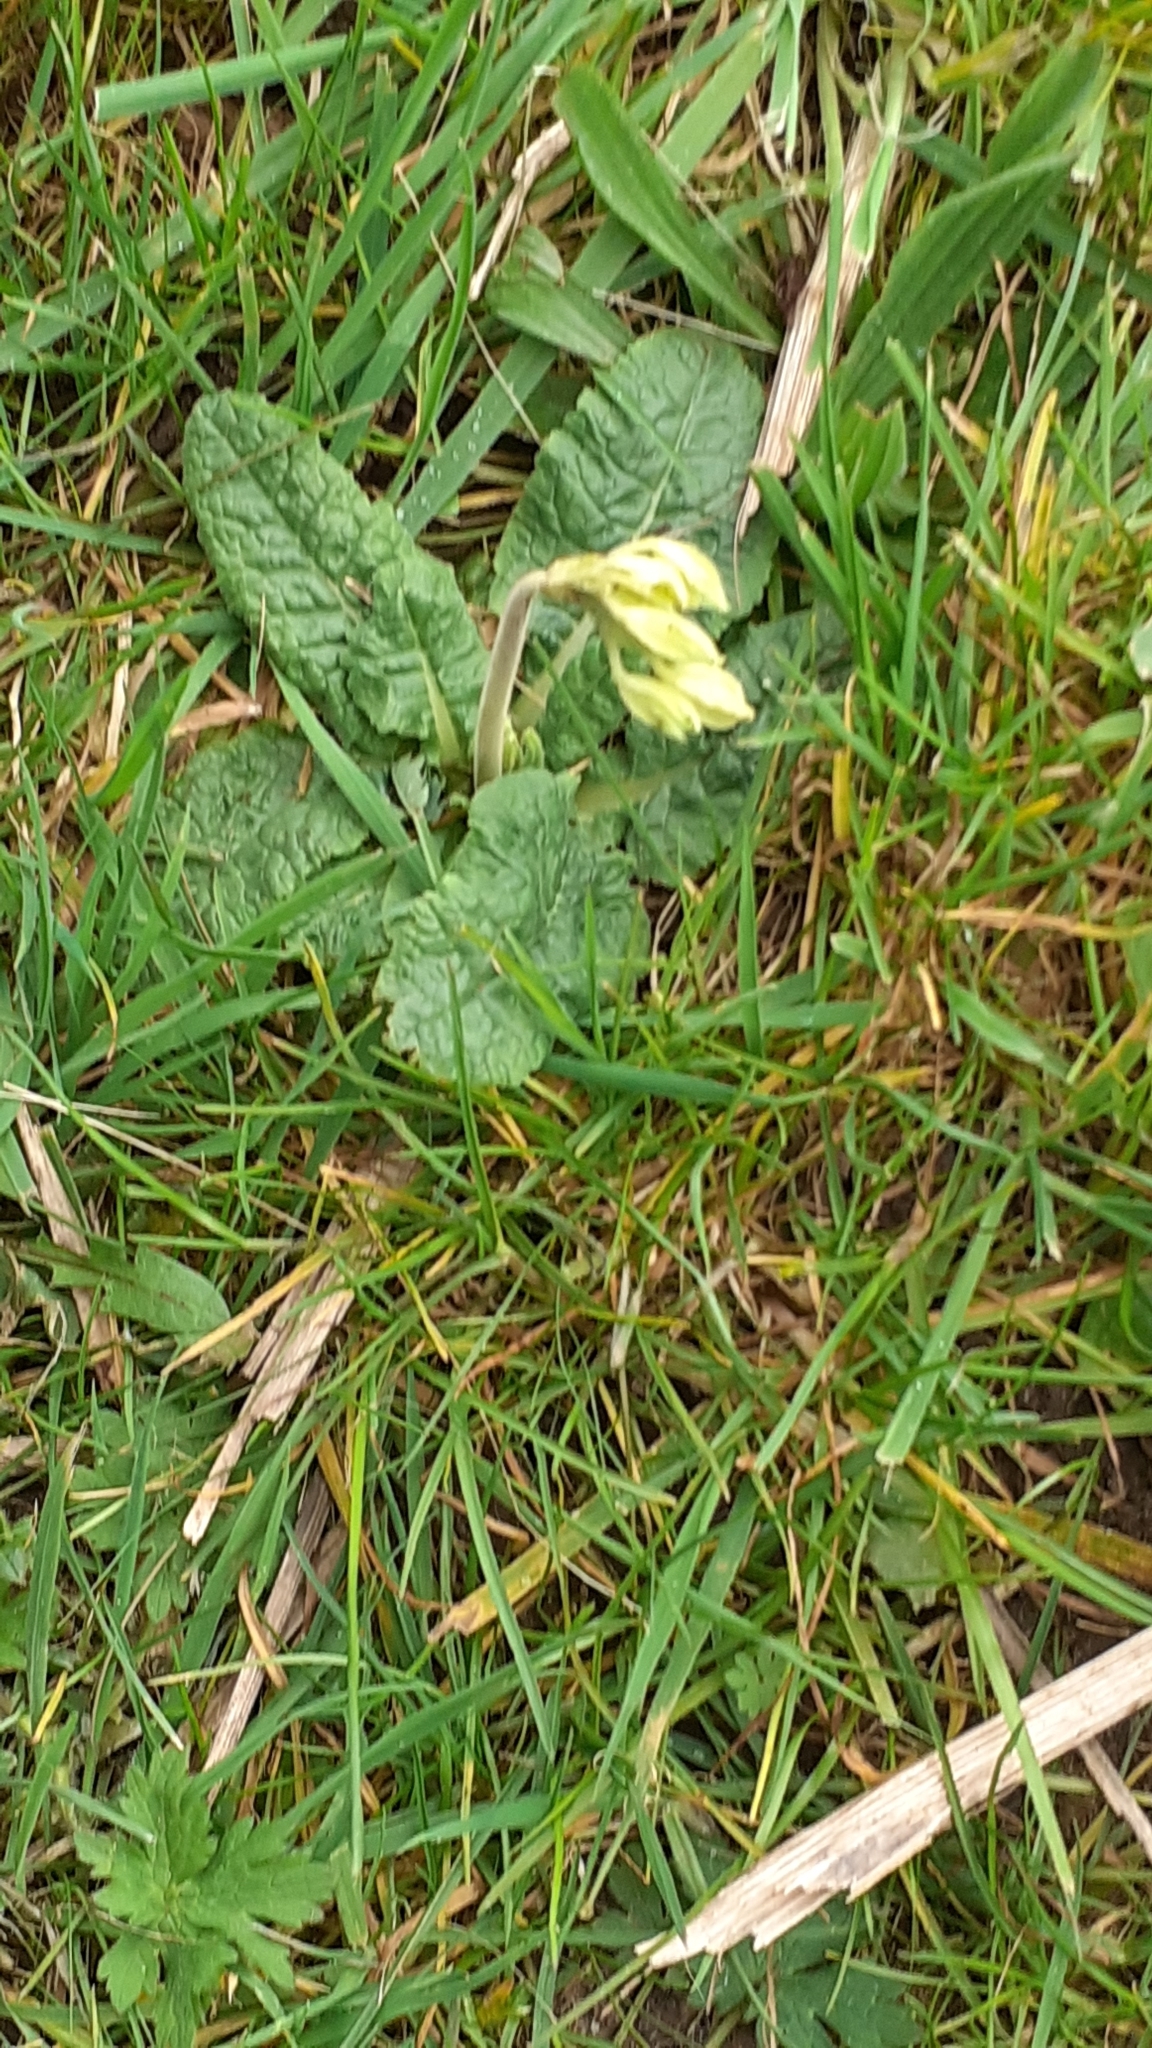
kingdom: Plantae
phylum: Tracheophyta
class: Magnoliopsida
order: Ericales
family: Primulaceae
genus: Primula
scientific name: Primula veris
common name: Cowslip
